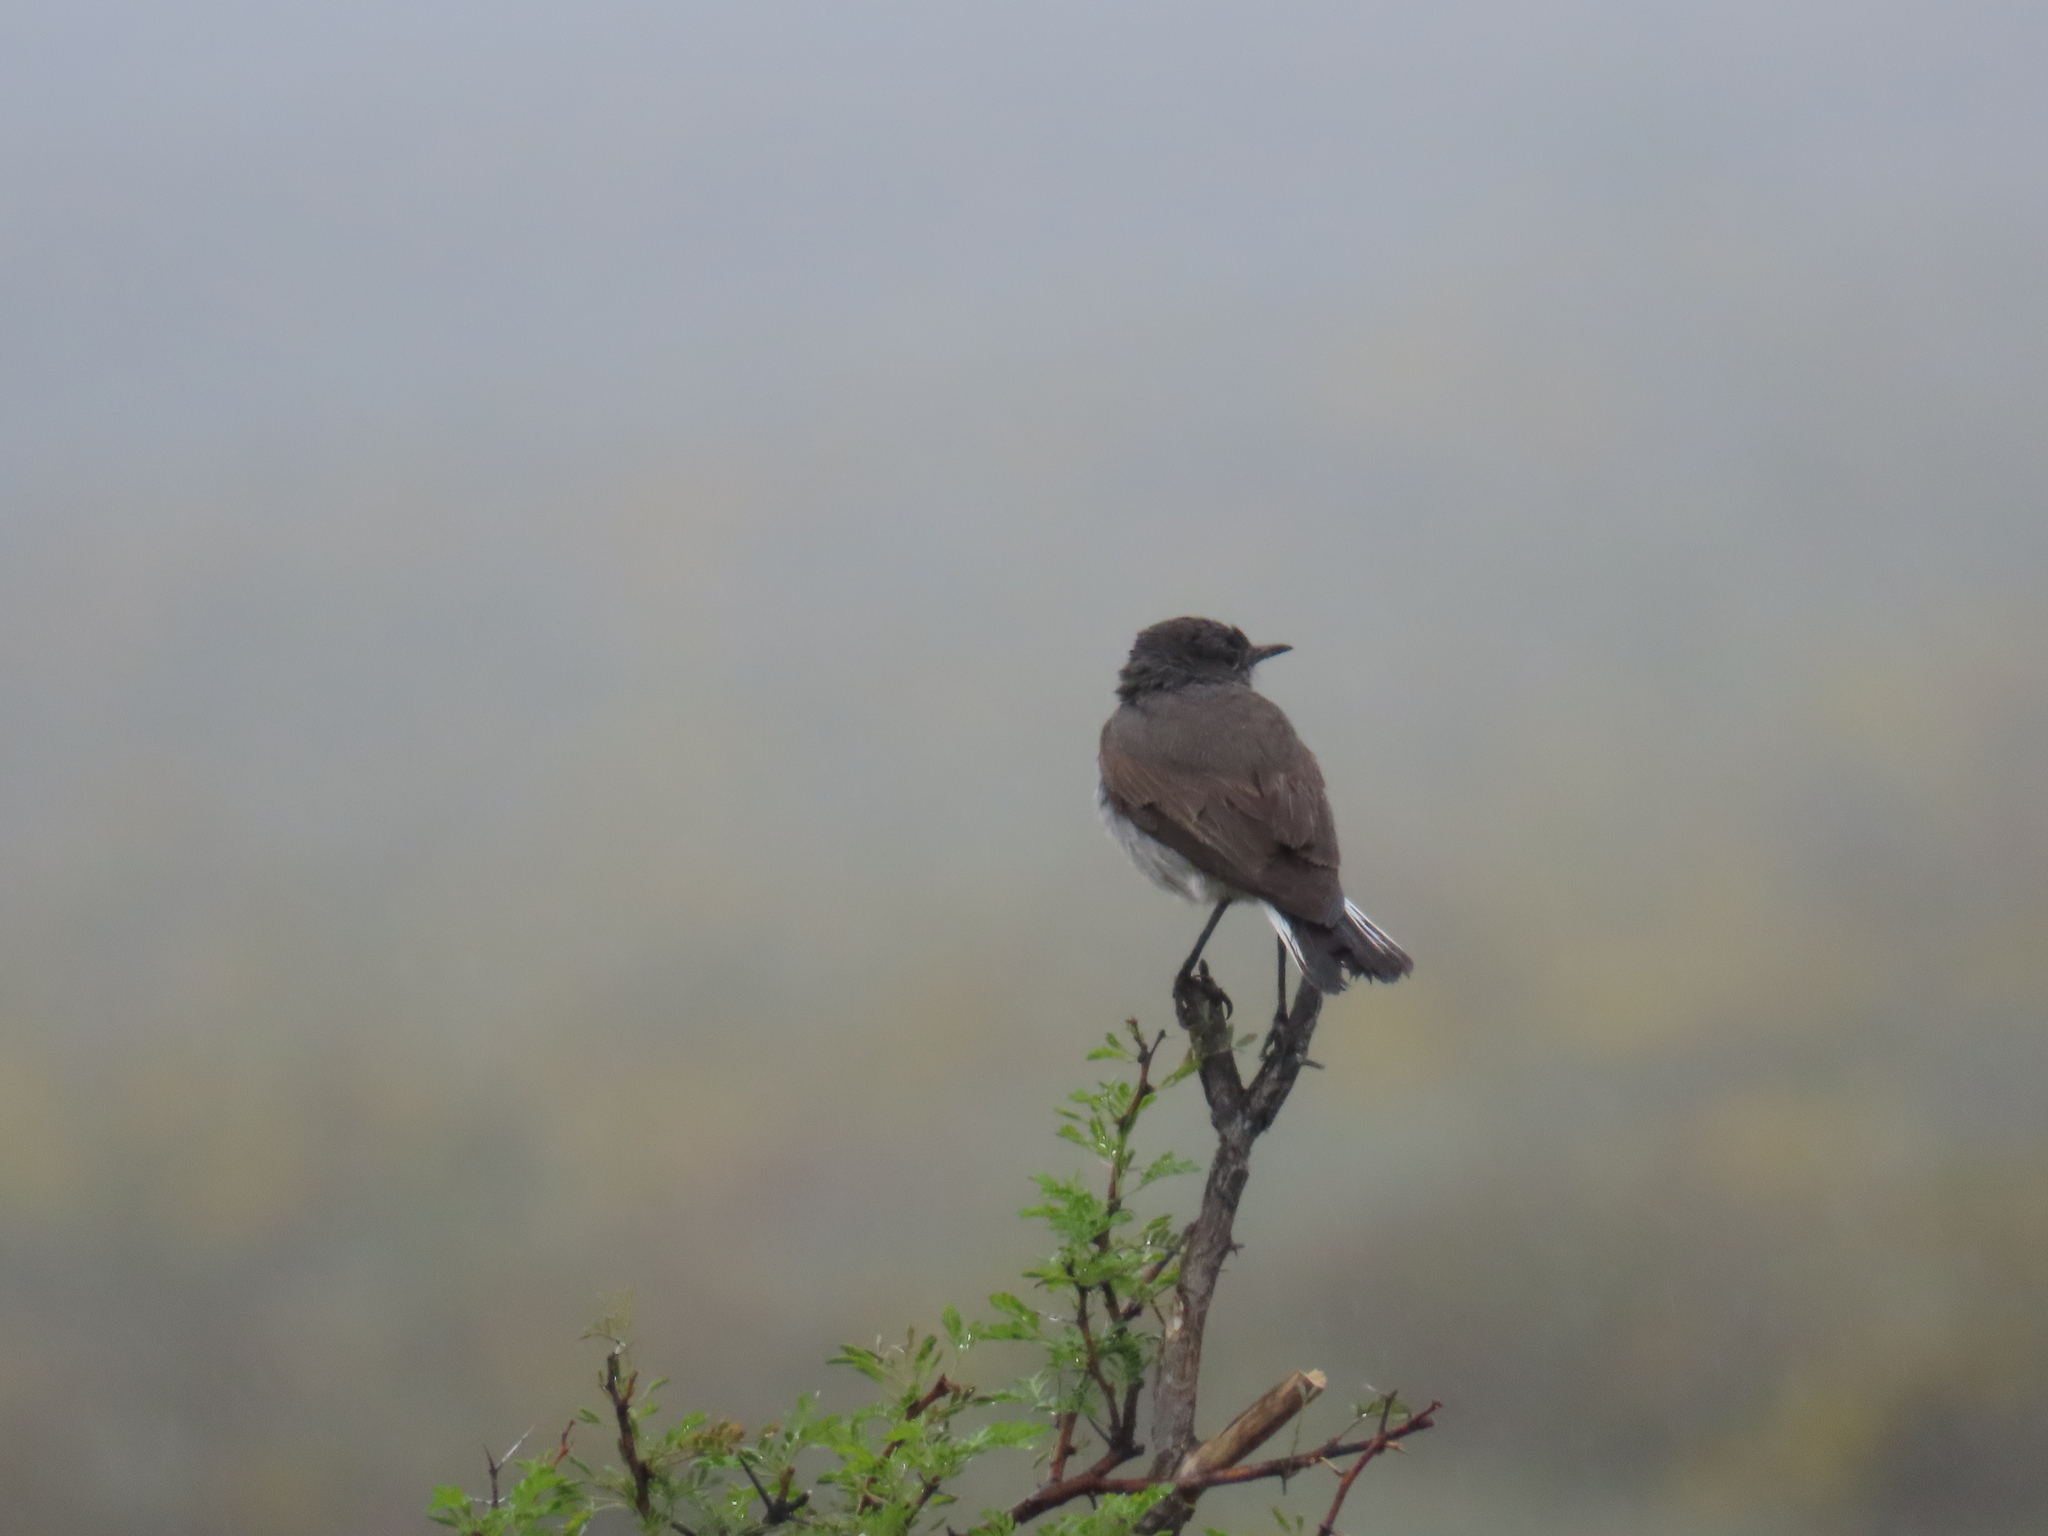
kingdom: Animalia
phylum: Chordata
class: Aves
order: Passeriformes
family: Muscicapidae
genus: Emarginata
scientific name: Emarginata schlegelii
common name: Karoo chat
